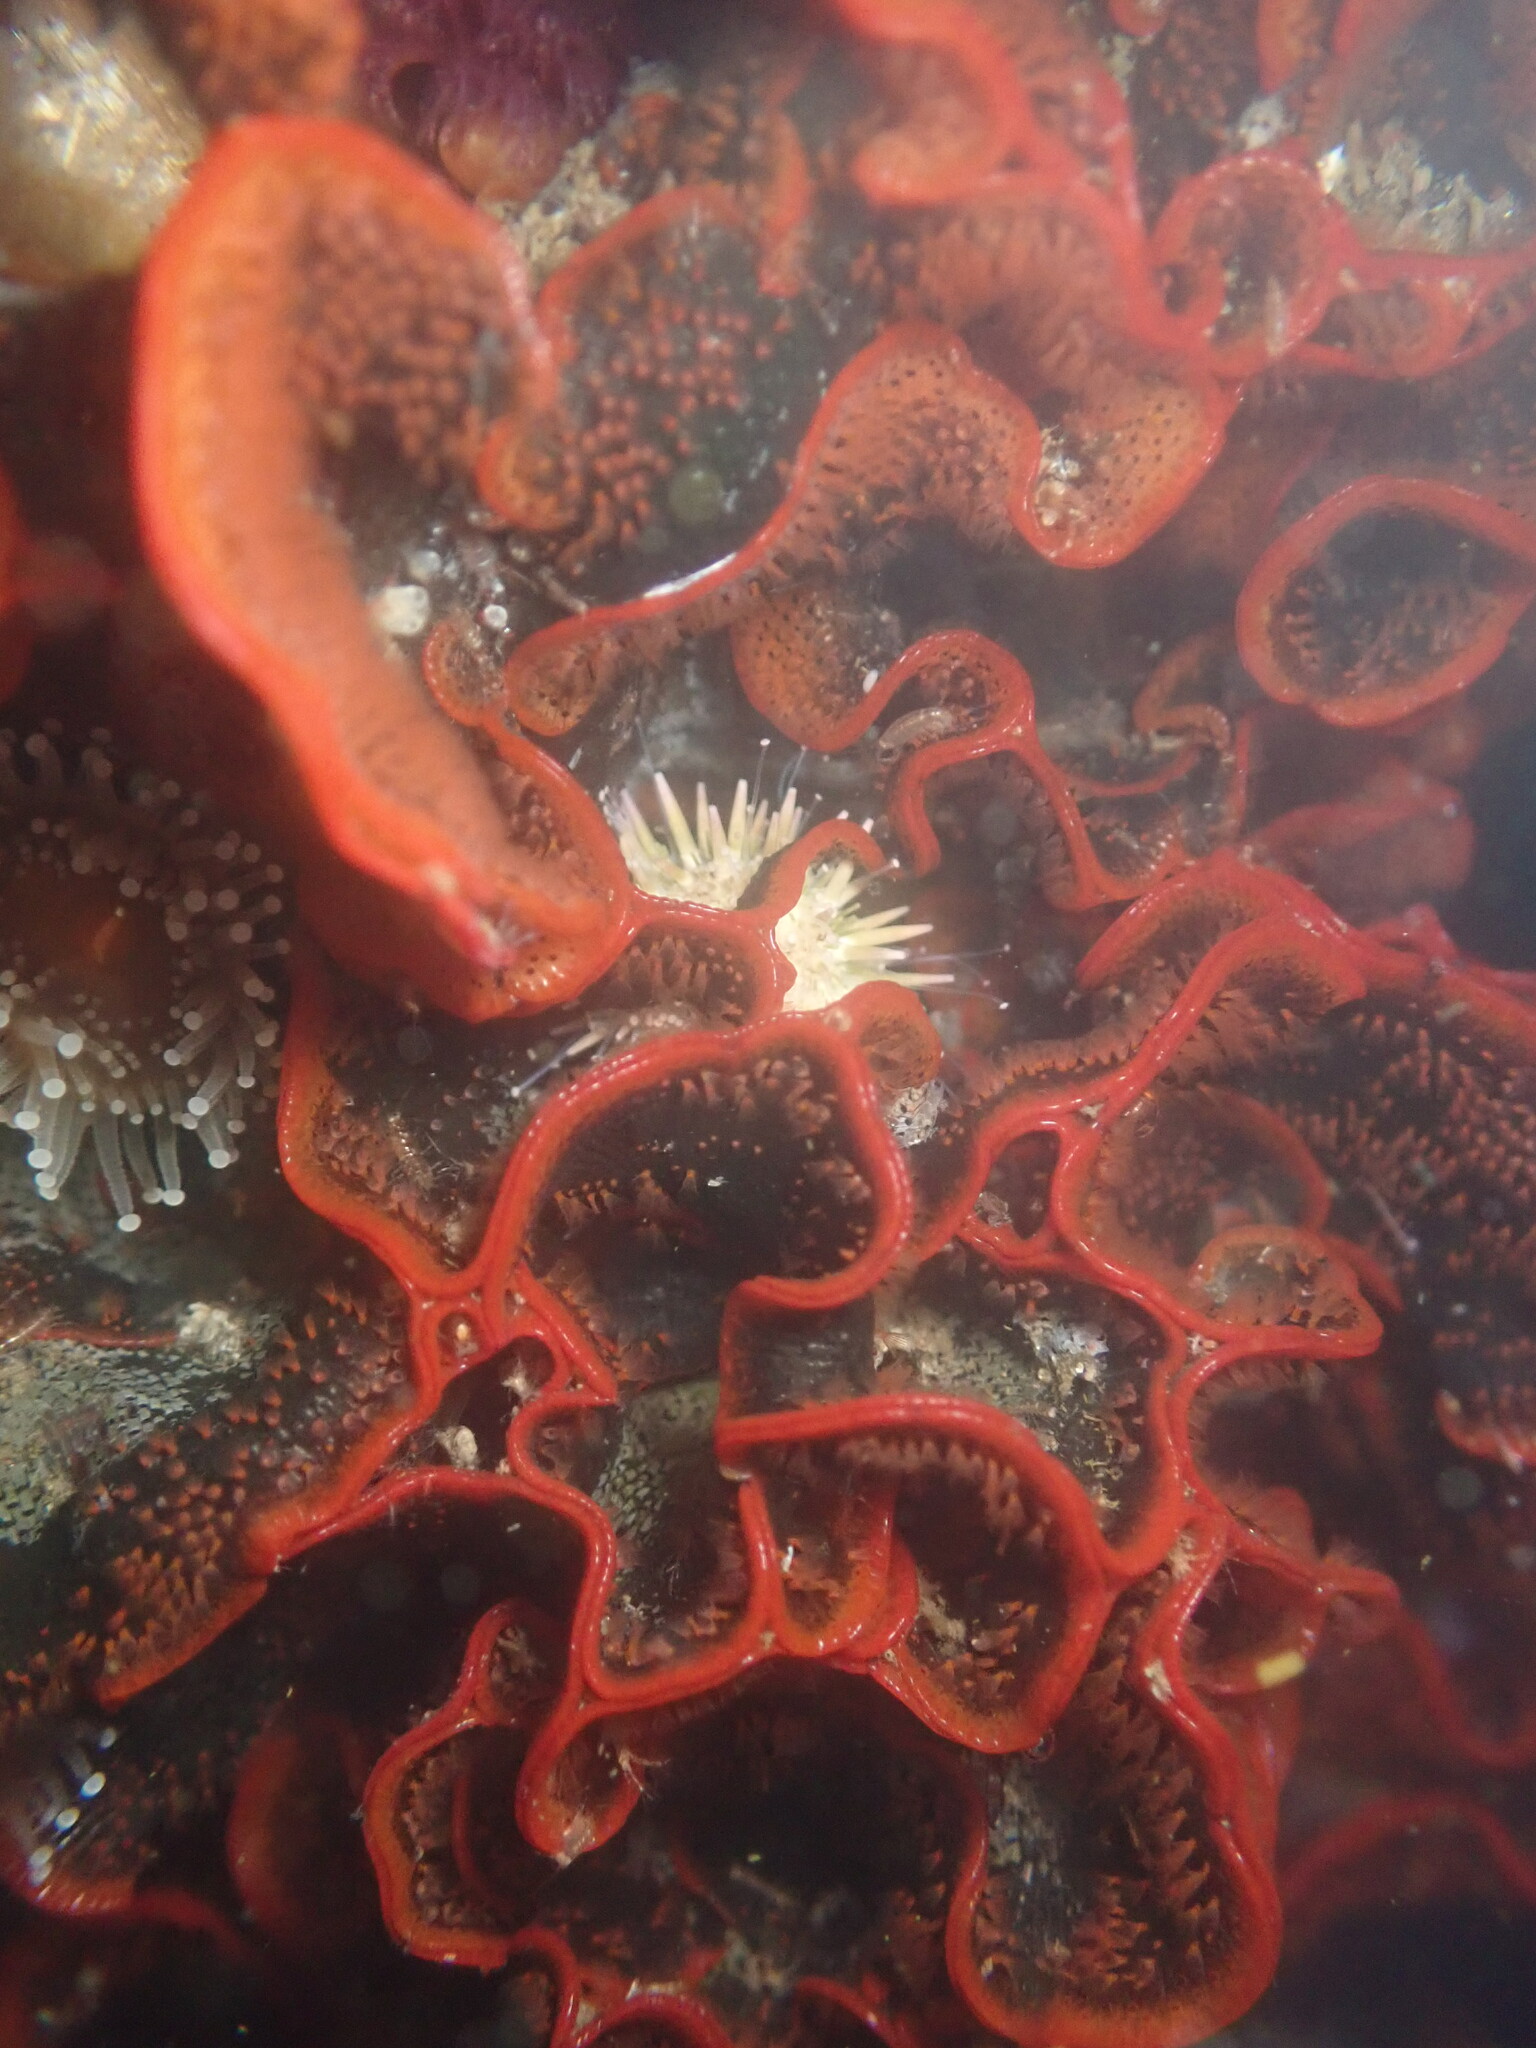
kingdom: Animalia
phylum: Echinodermata
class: Echinoidea
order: Camarodonta
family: Strongylocentrotidae
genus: Strongylocentrotus
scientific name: Strongylocentrotus purpuratus
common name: Purple sea urchin
